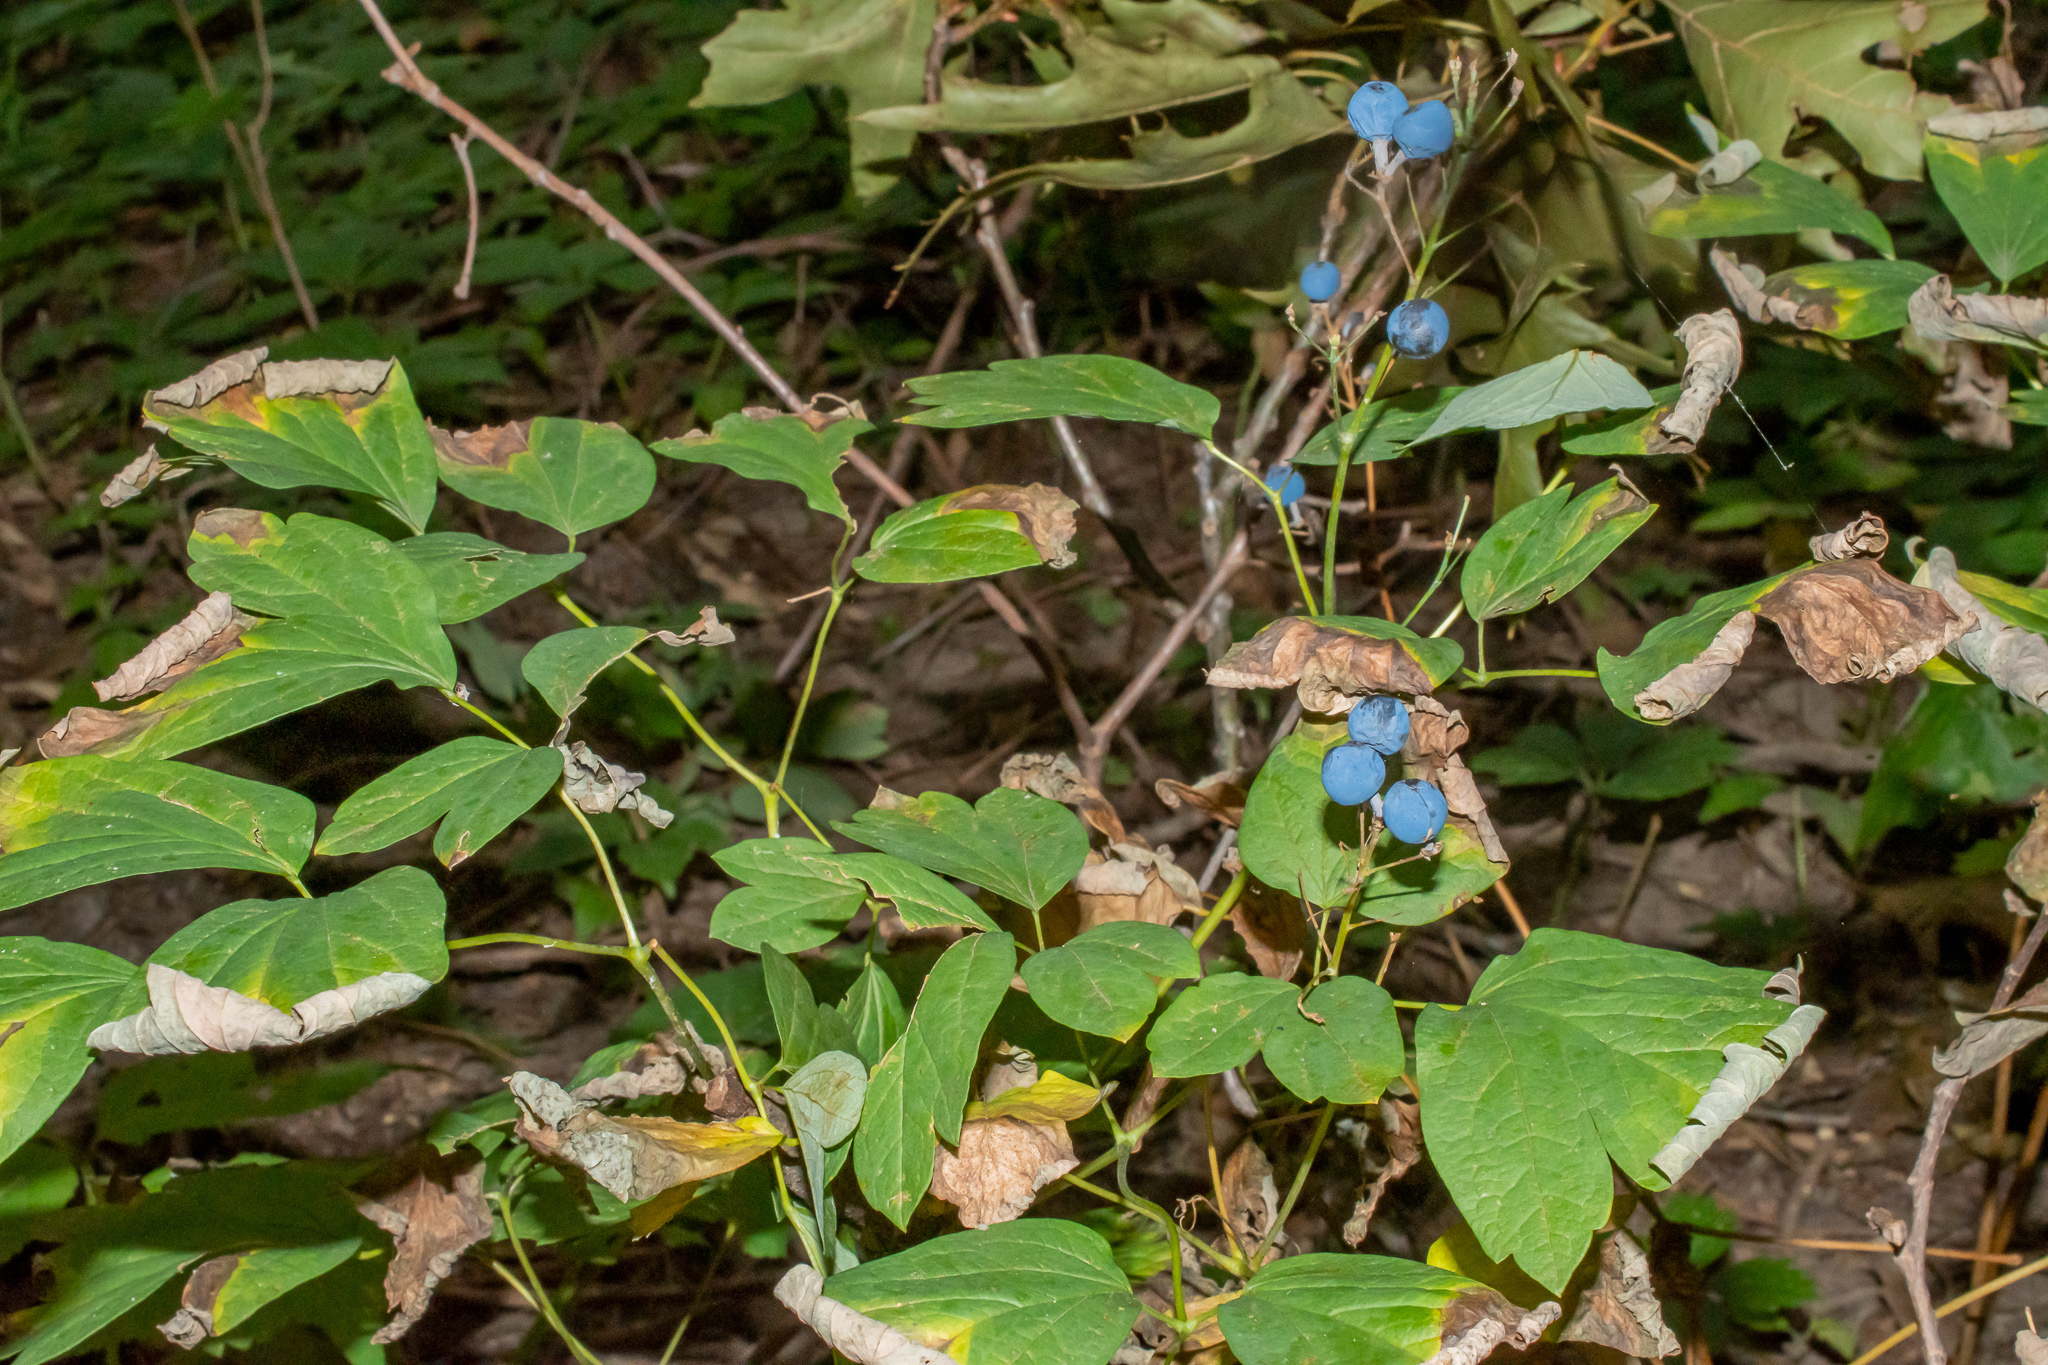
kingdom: Plantae
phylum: Tracheophyta
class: Magnoliopsida
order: Ranunculales
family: Berberidaceae
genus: Caulophyllum
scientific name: Caulophyllum thalictroides
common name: Blue cohosh
